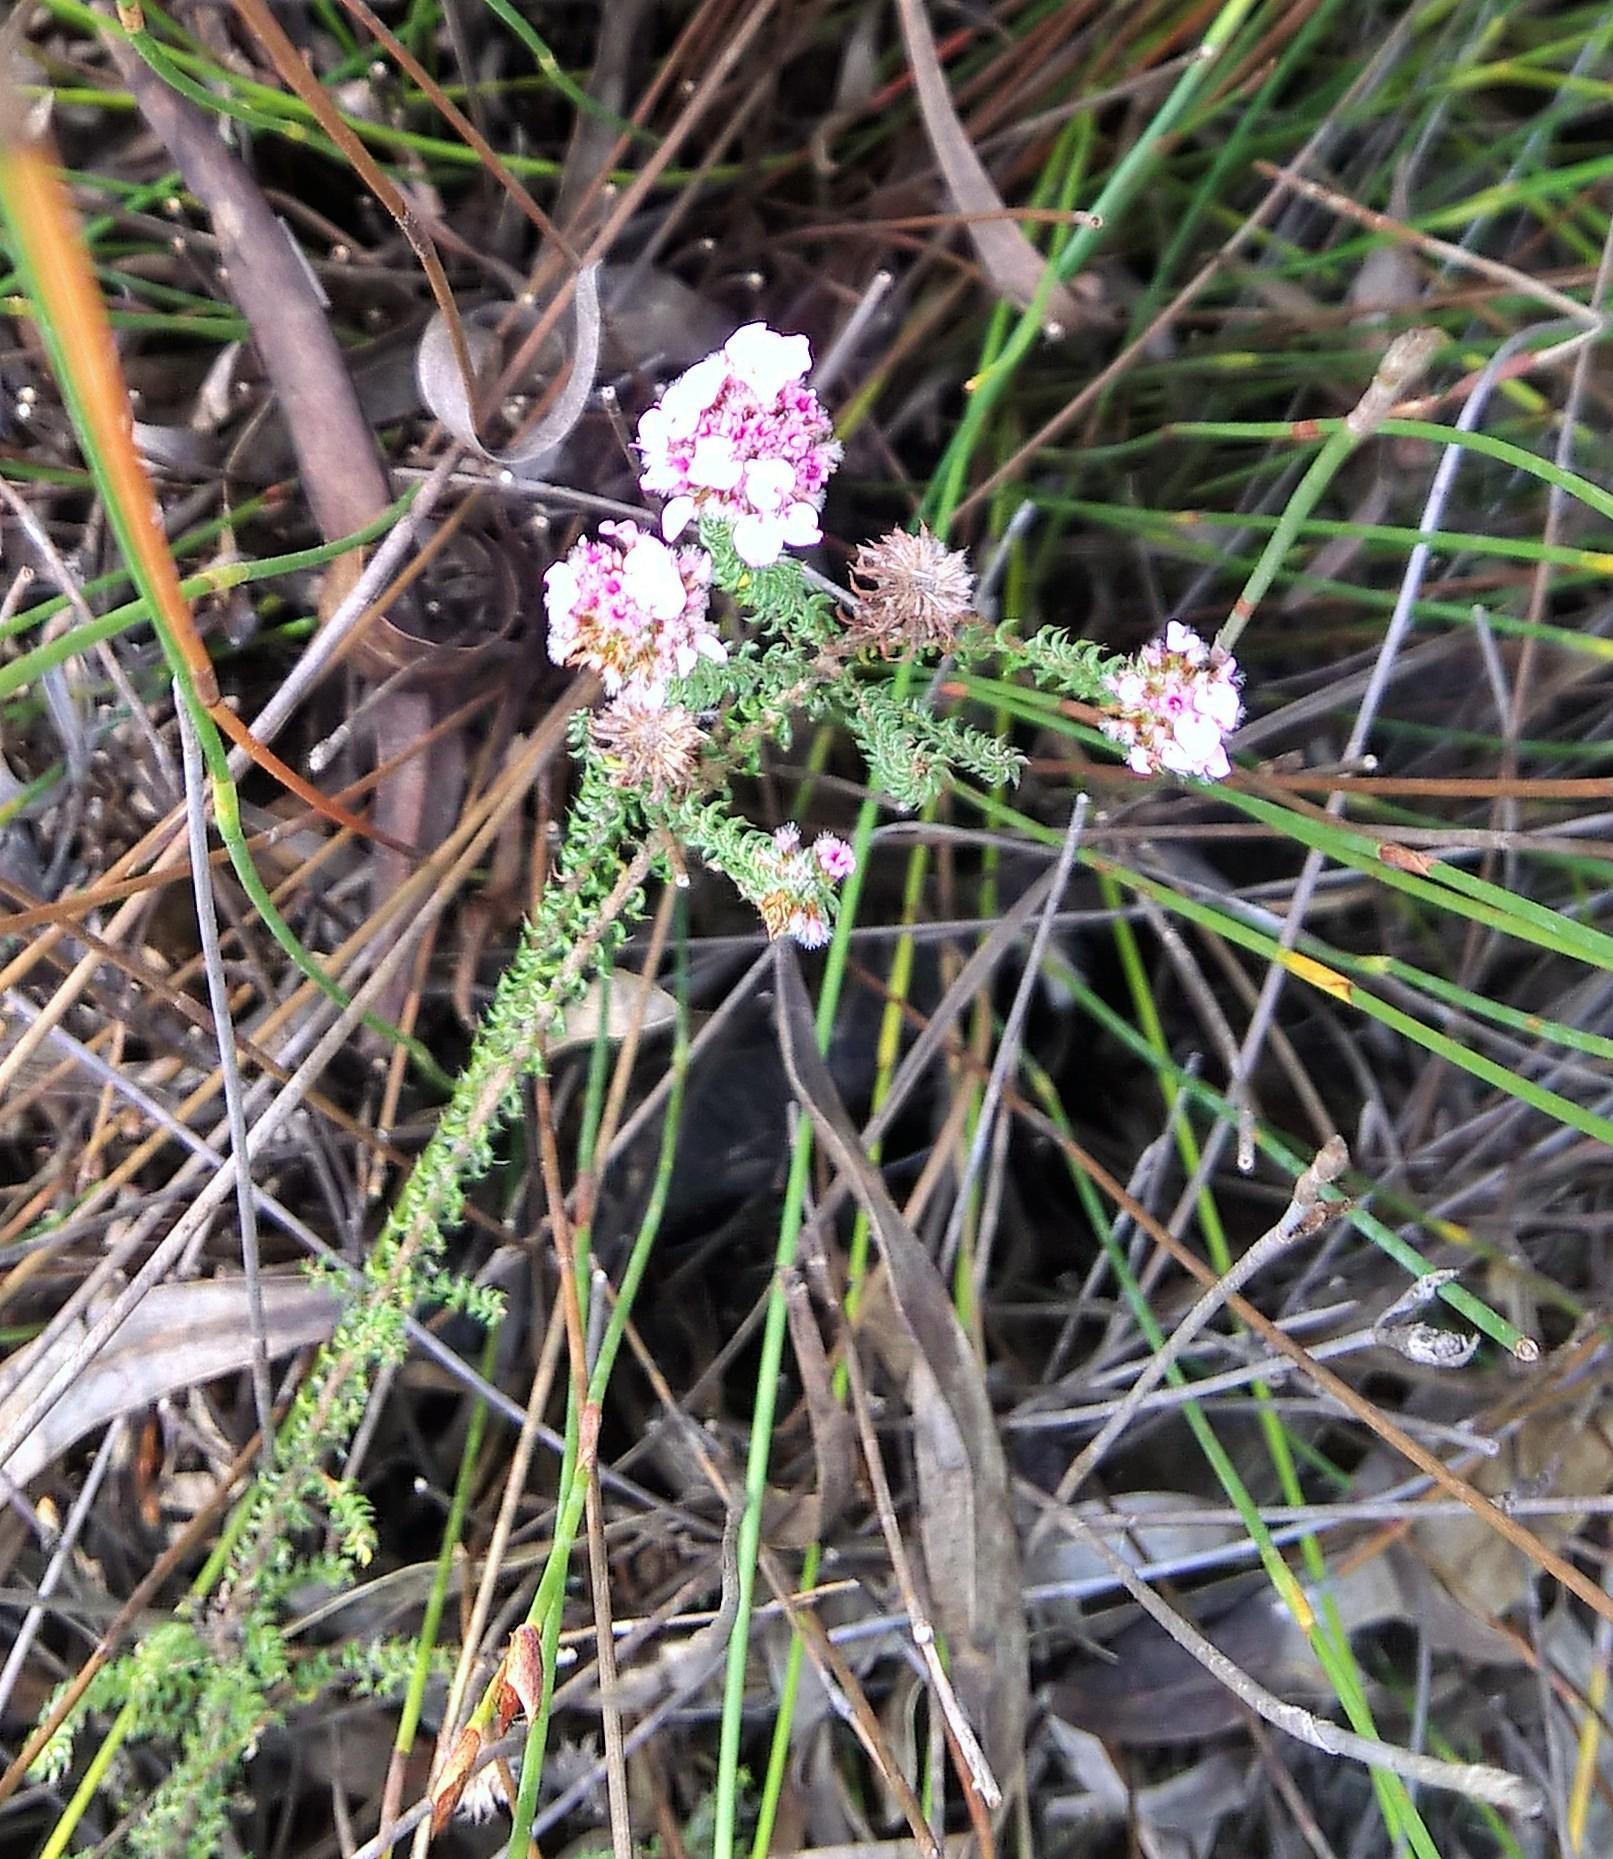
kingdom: Plantae
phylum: Tracheophyta
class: Magnoliopsida
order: Asterales
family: Asteraceae
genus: Disparago
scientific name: Disparago tortilis
